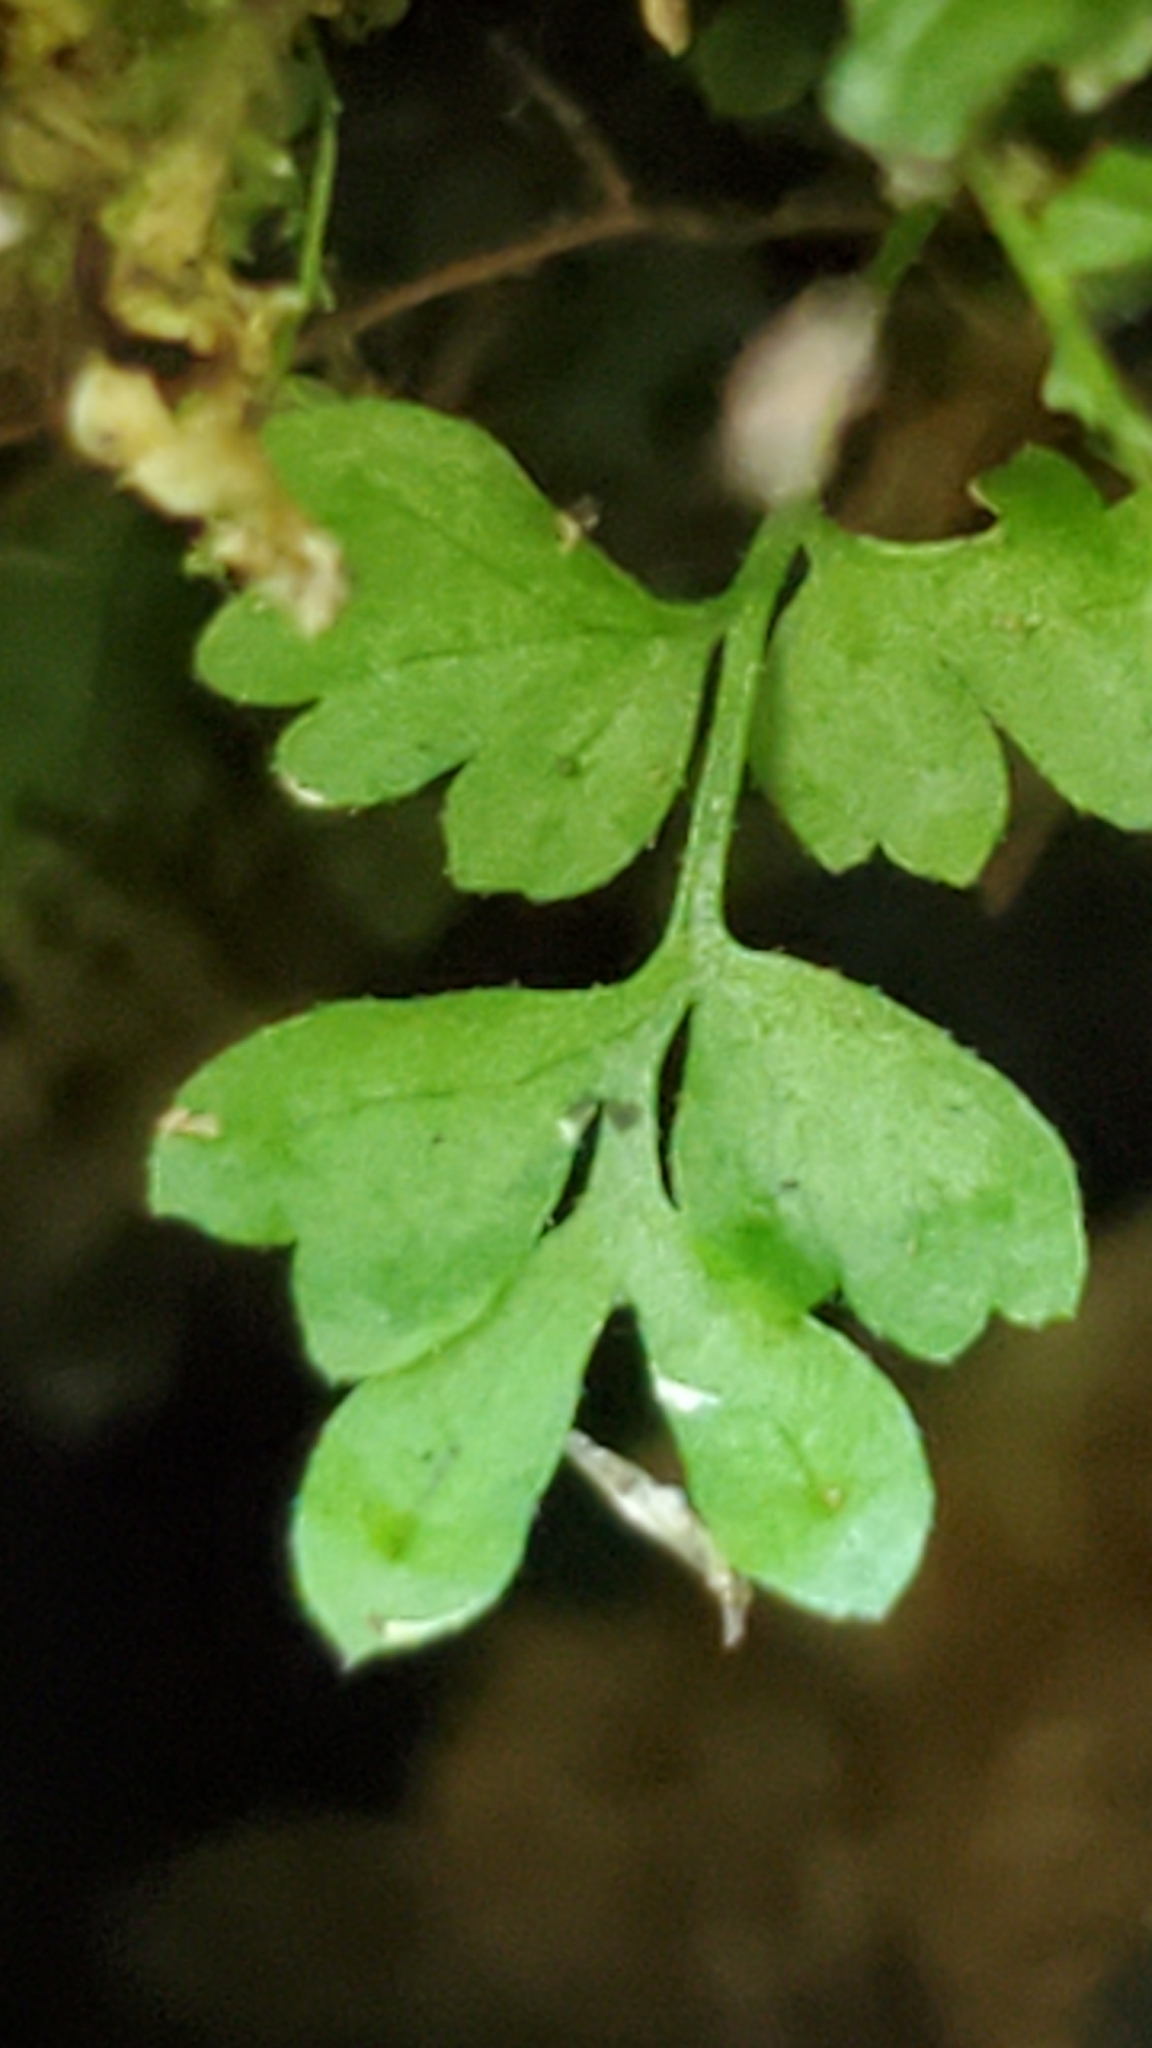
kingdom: Plantae
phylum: Tracheophyta
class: Polypodiopsida
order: Polypodiales
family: Dryopteridaceae
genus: Dryopteris
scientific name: Dryopteris intermedia
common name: Evergreen wood fern
